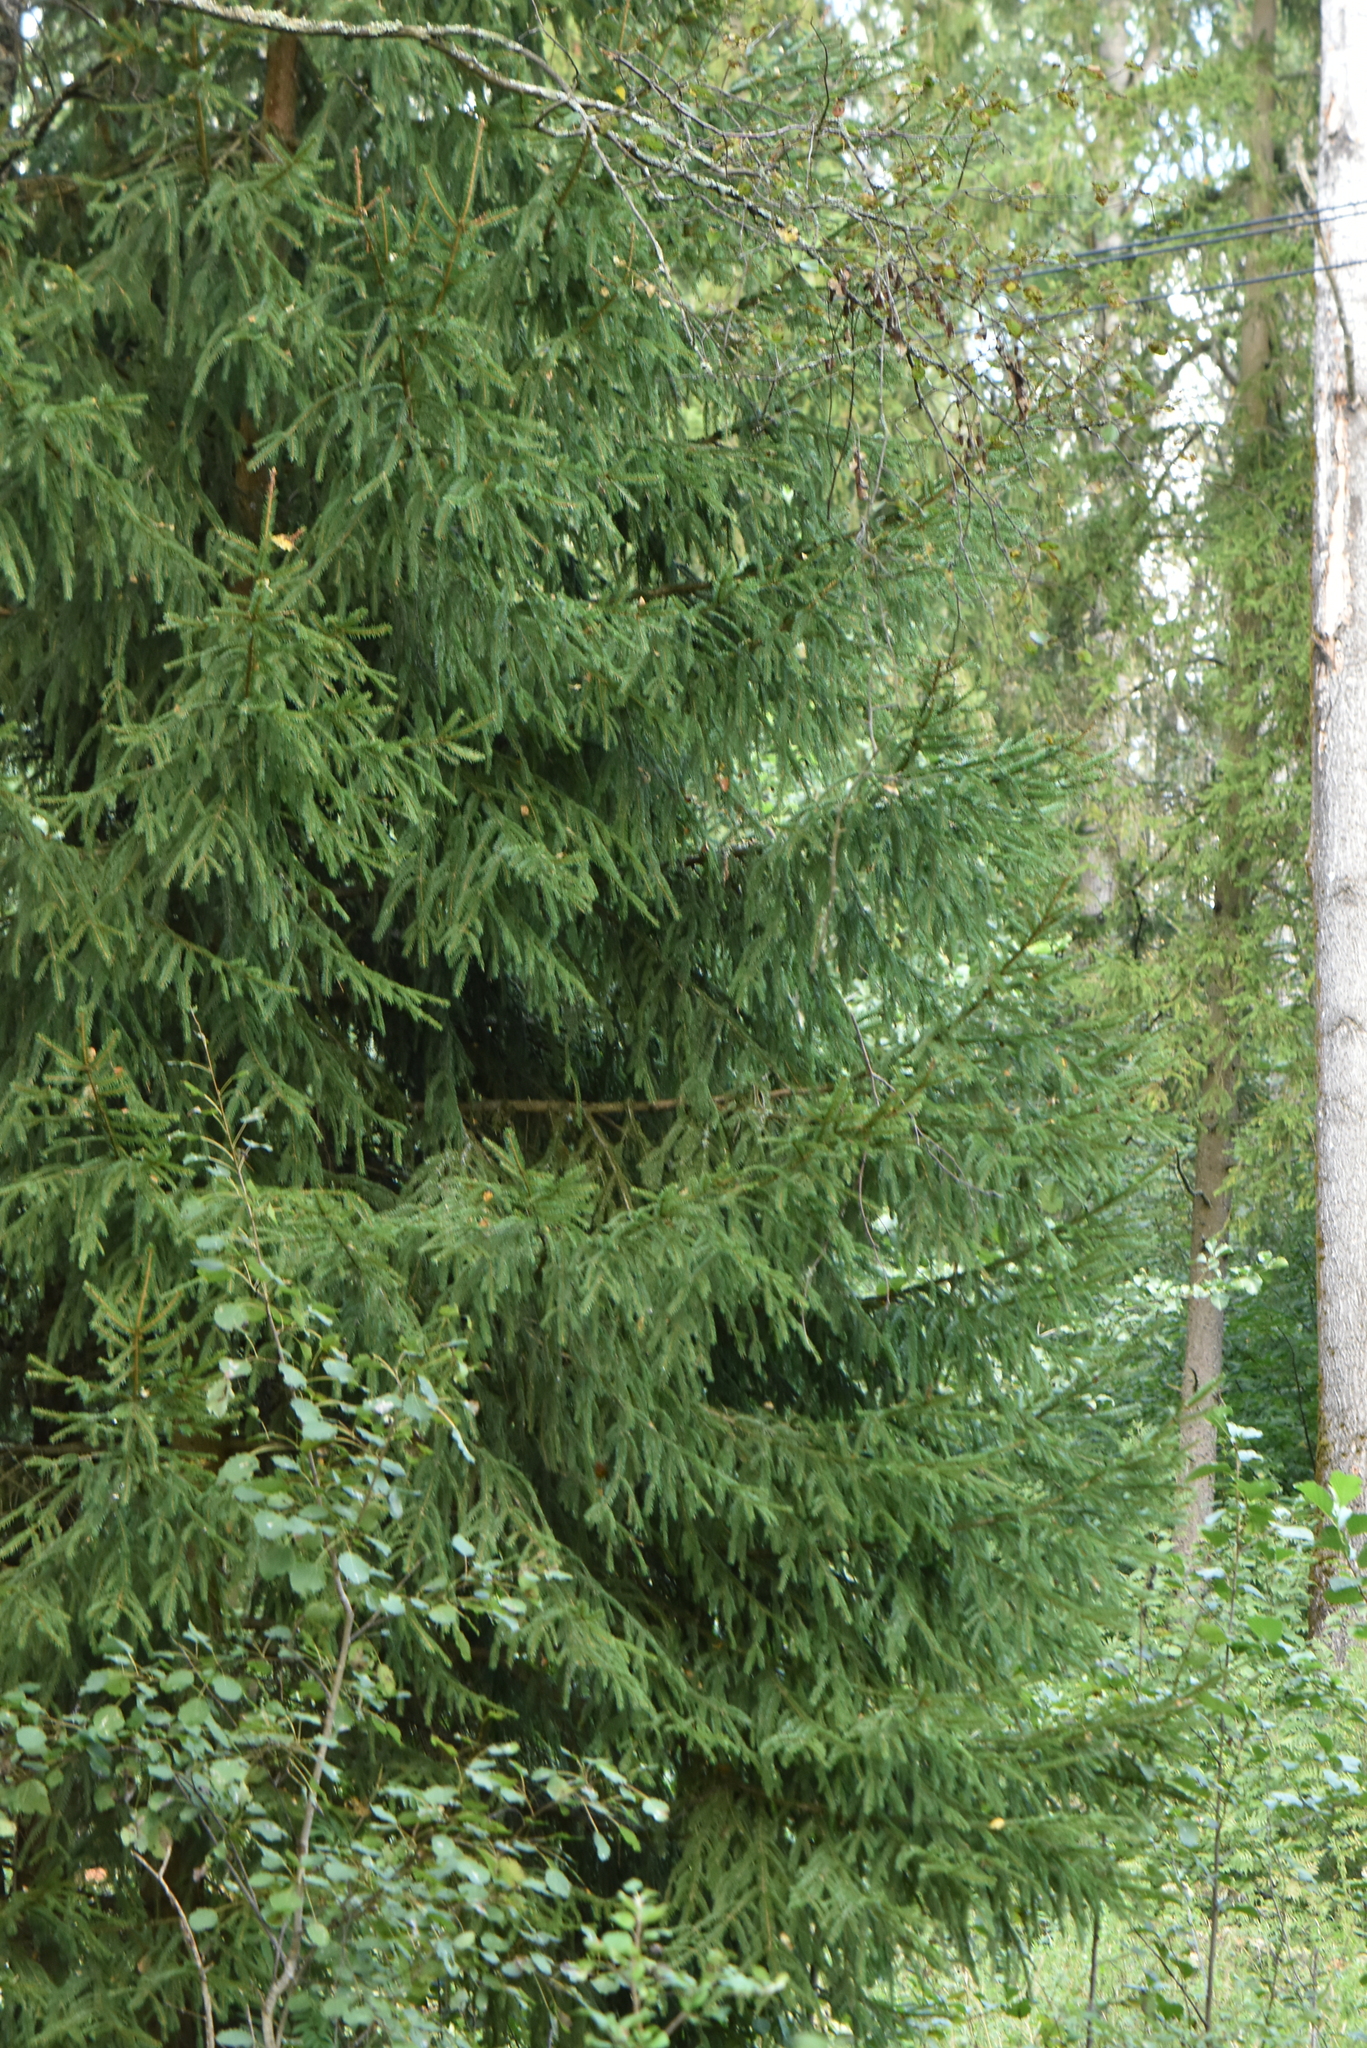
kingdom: Plantae
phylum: Tracheophyta
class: Pinopsida
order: Pinales
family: Pinaceae
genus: Picea
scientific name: Picea abies
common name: Norway spruce
